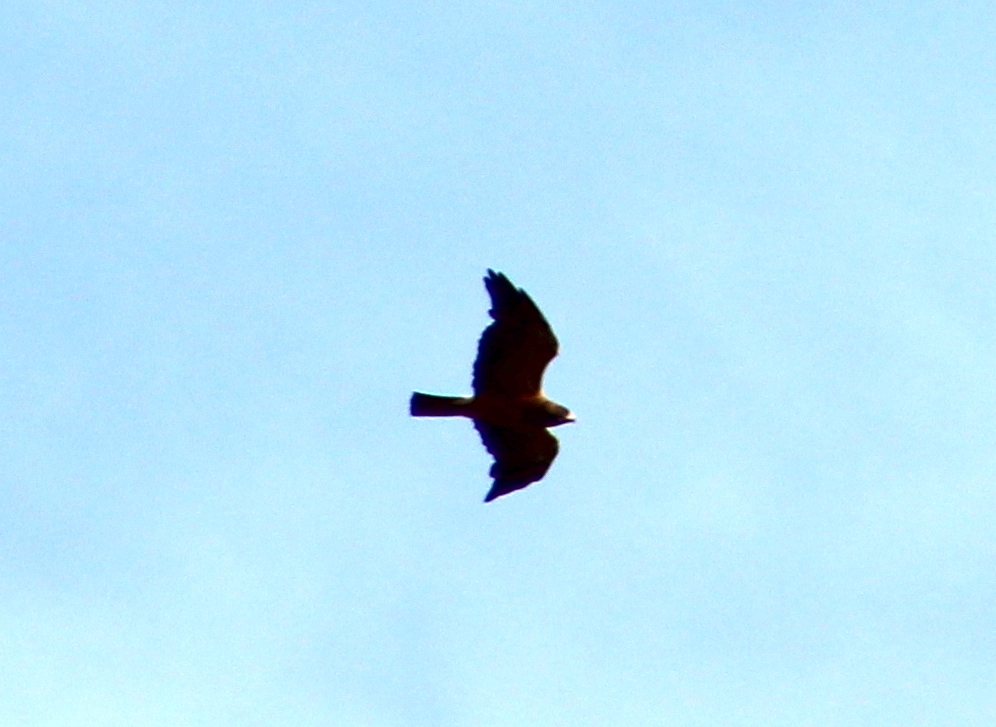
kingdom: Animalia
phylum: Chordata
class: Aves
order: Accipitriformes
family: Accipitridae
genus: Buteo
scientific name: Buteo swainsoni
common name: Swainson's hawk
